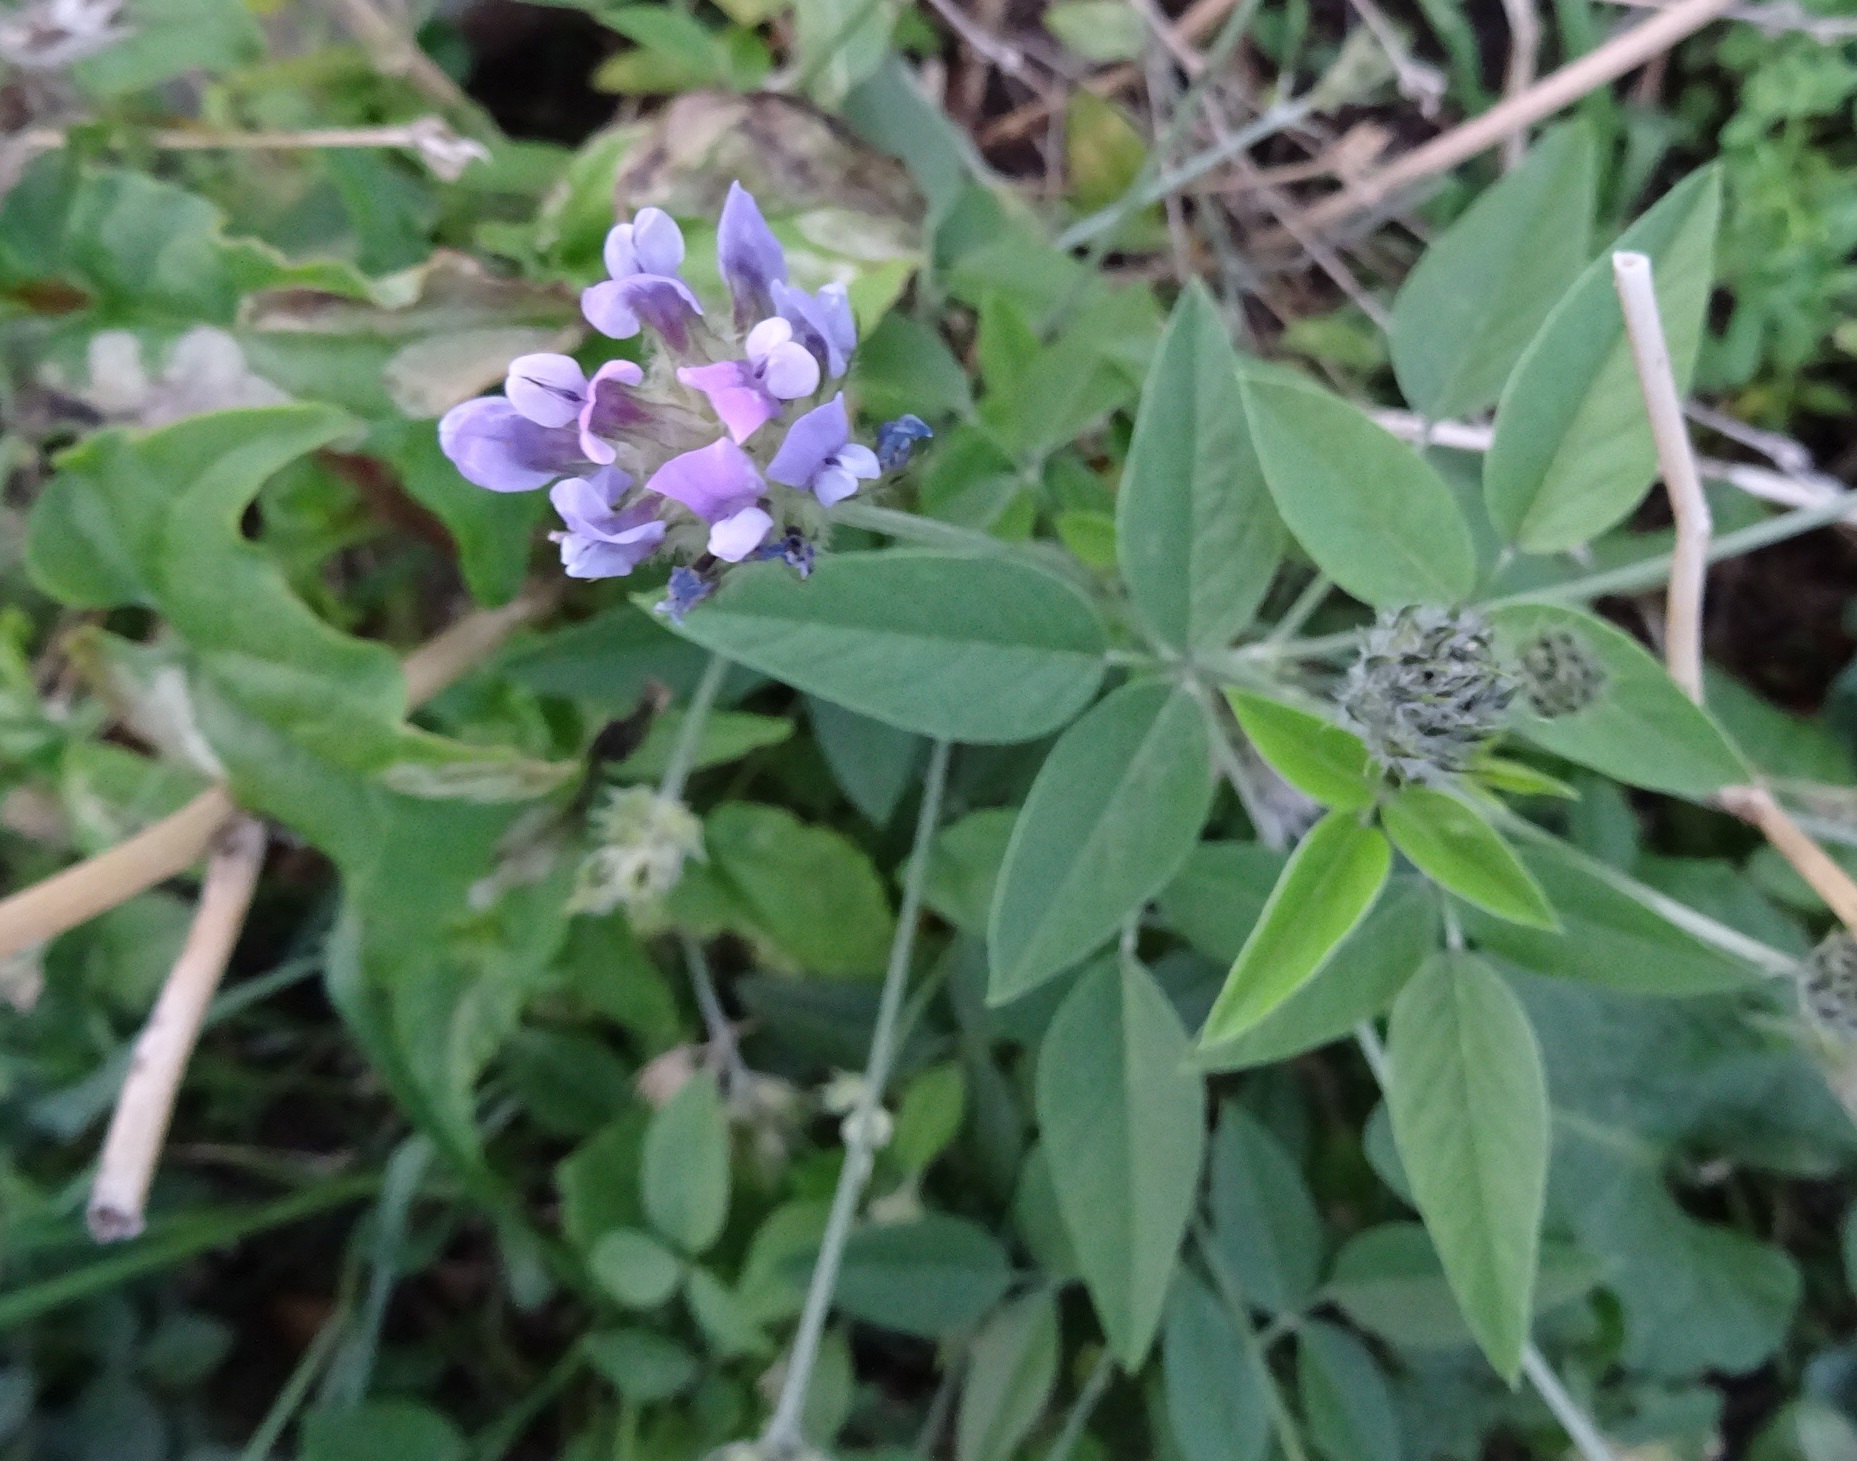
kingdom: Plantae
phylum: Tracheophyta
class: Magnoliopsida
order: Fabales
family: Fabaceae
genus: Bituminaria
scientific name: Bituminaria bituminosa
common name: Arabian pea
